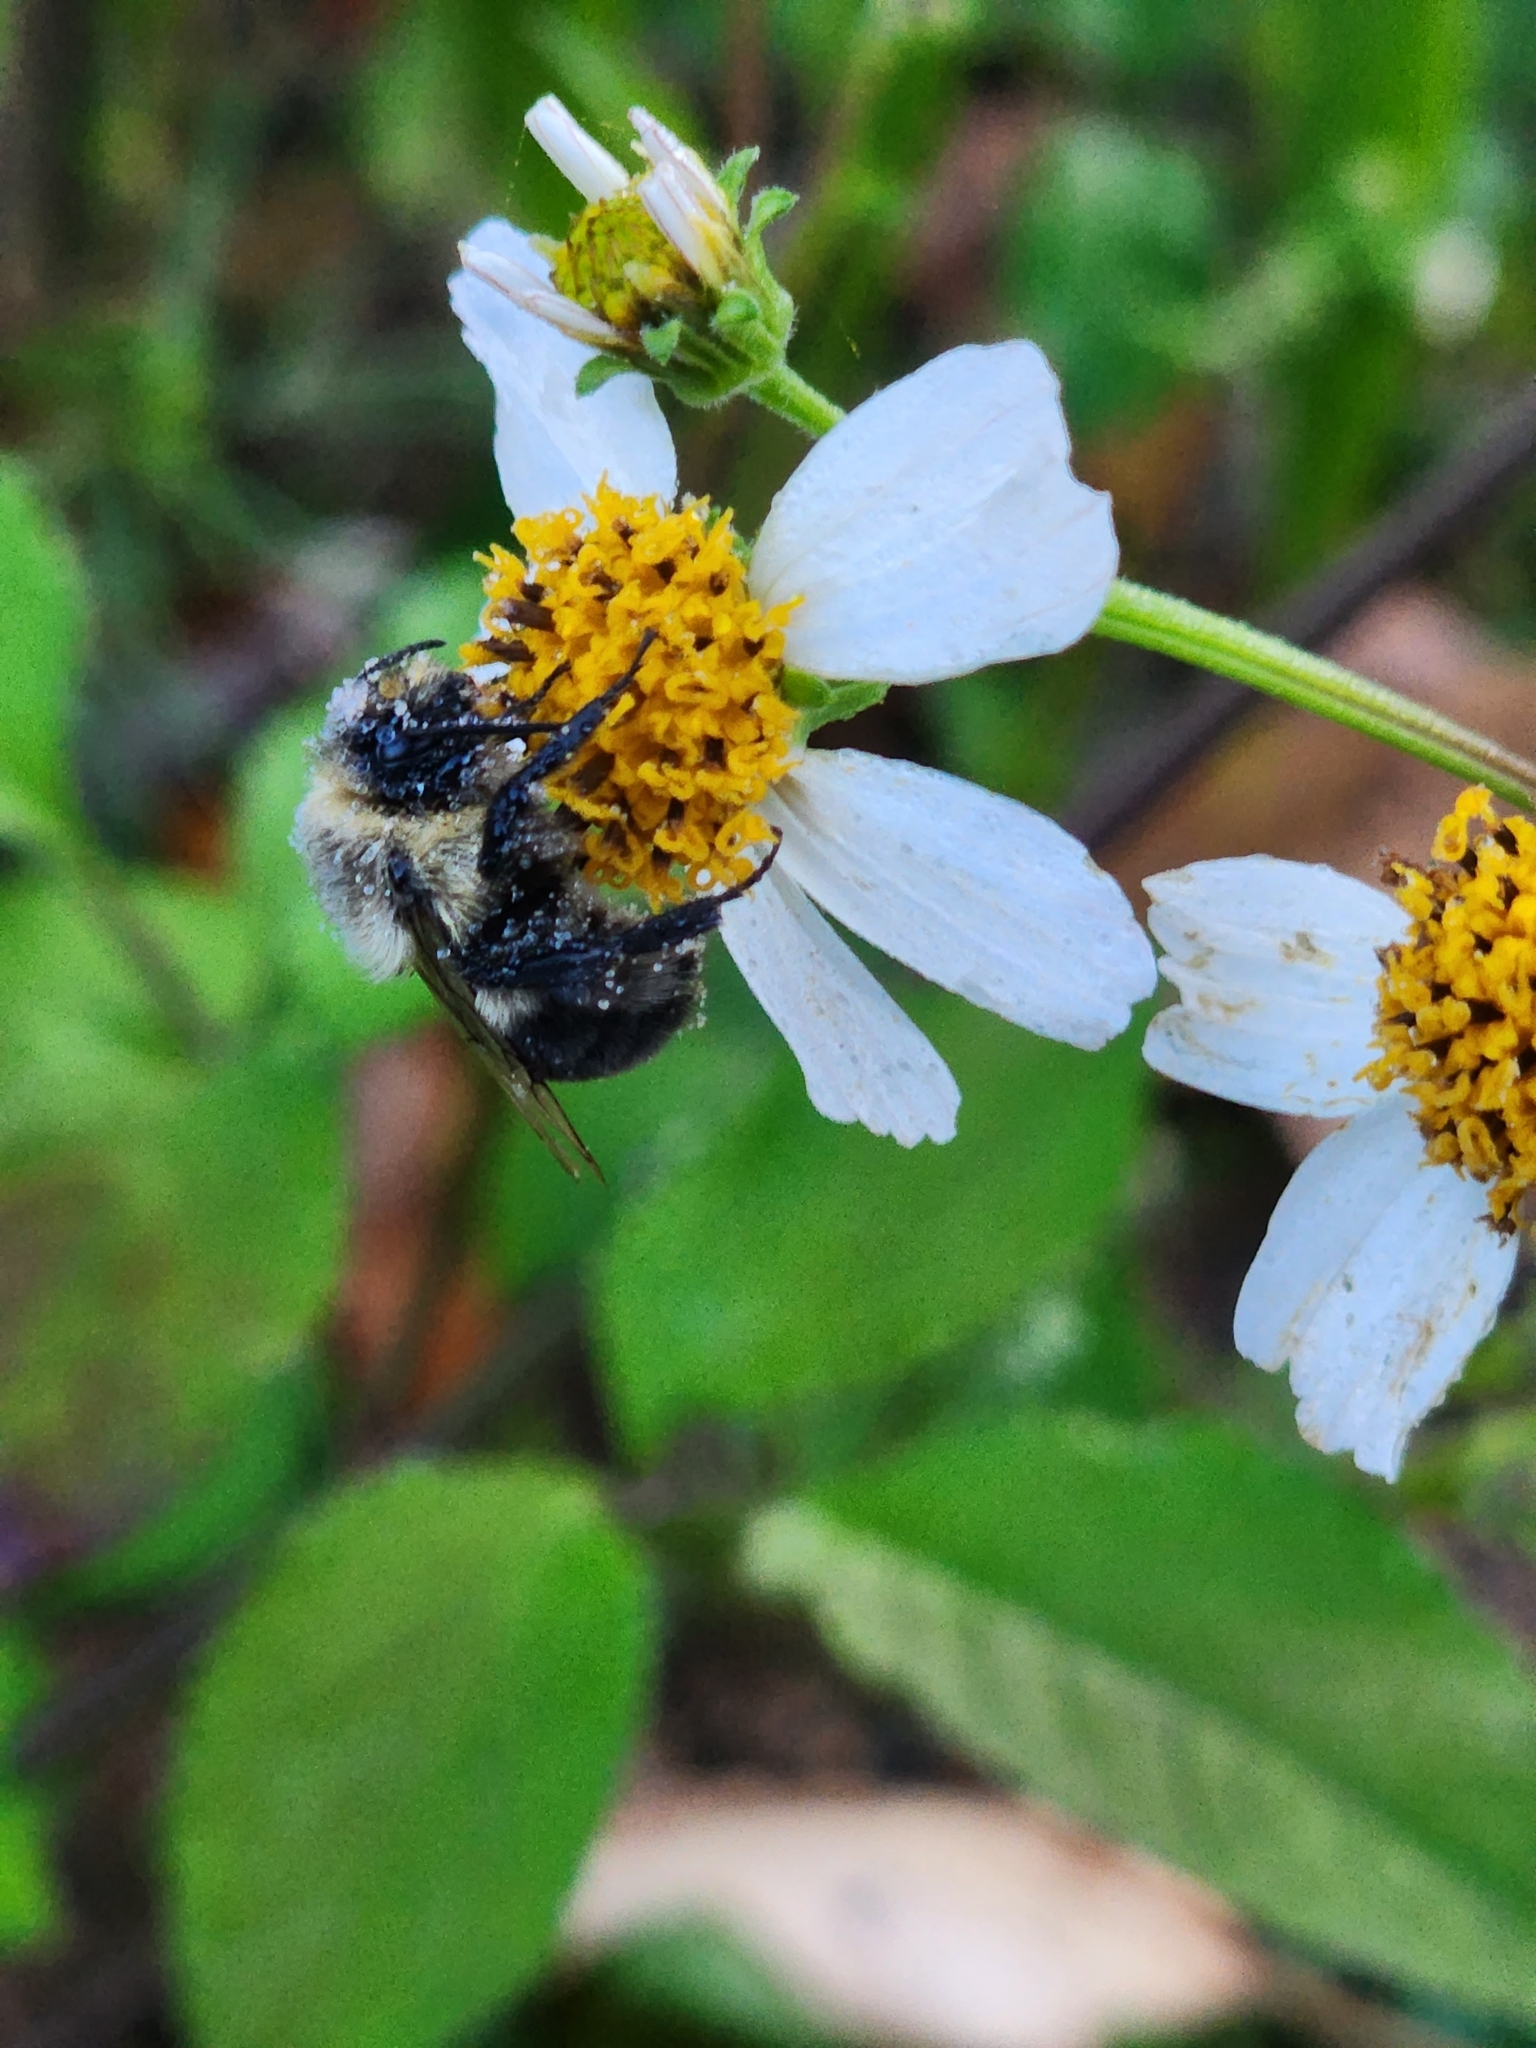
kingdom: Animalia
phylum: Arthropoda
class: Insecta
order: Hymenoptera
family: Apidae
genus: Bombus
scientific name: Bombus impatiens
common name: Common eastern bumble bee
